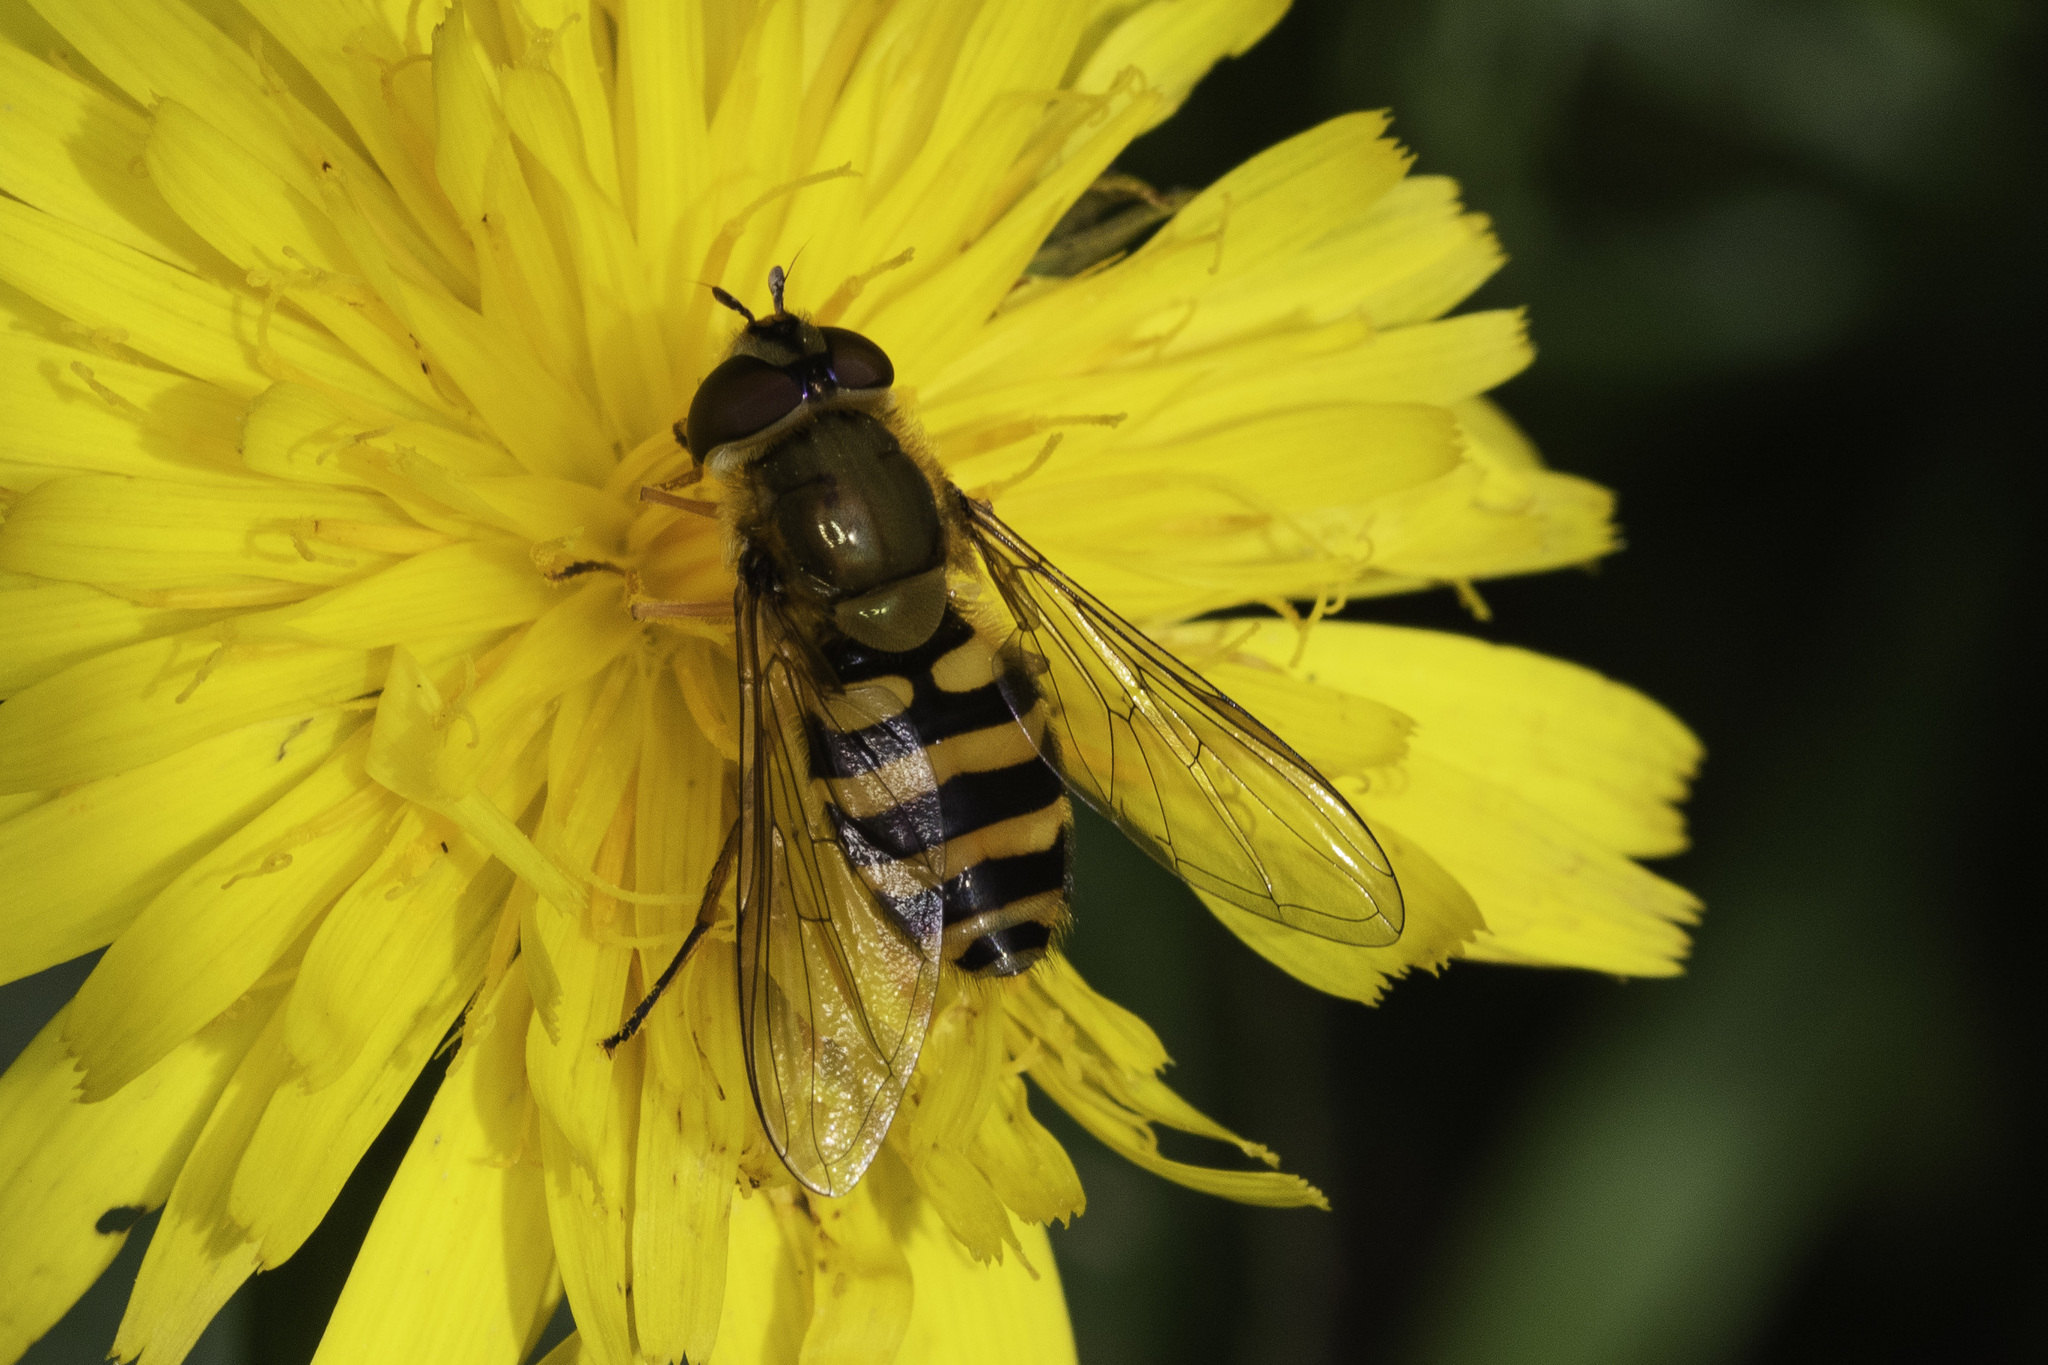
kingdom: Animalia
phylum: Arthropoda
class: Insecta
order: Diptera
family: Syrphidae
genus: Syrphus
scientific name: Syrphus ribesii
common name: Common flower fly
